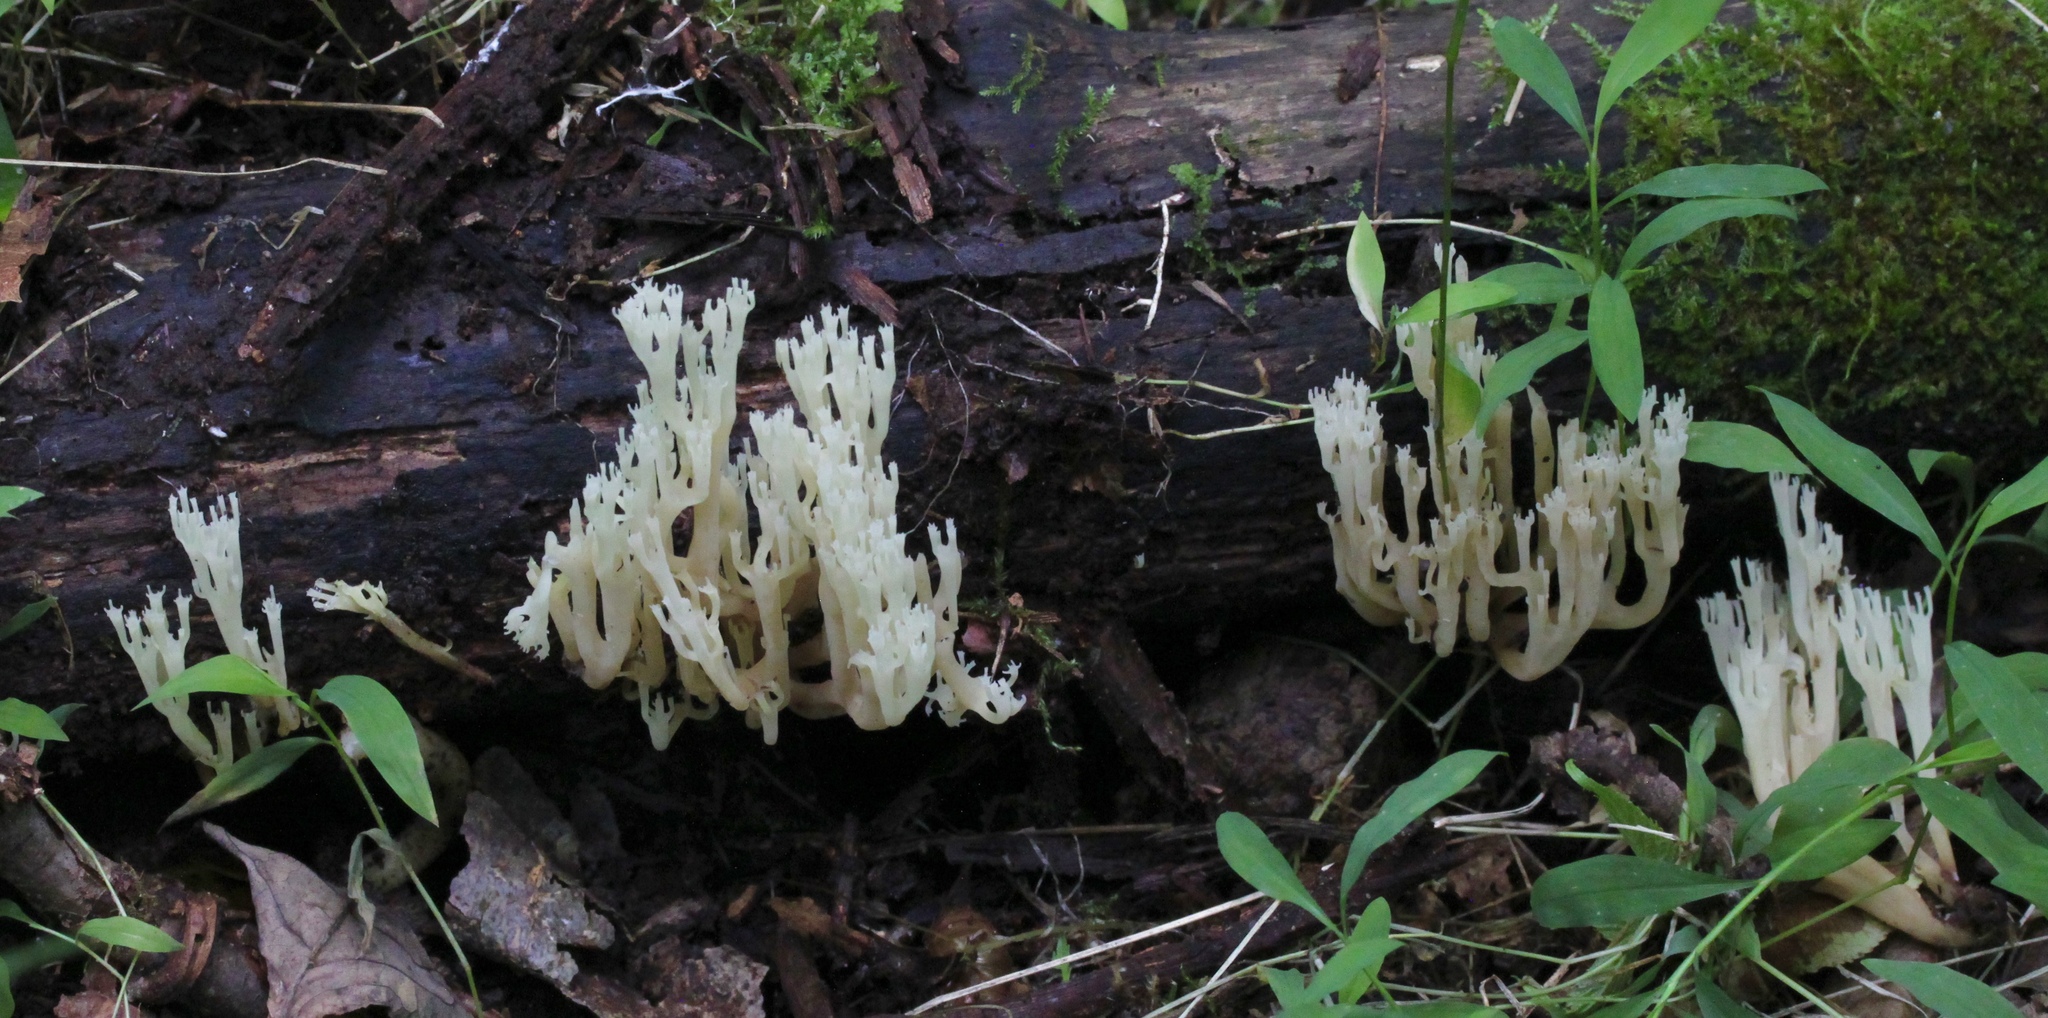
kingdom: Fungi
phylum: Basidiomycota
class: Agaricomycetes
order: Russulales
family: Auriscalpiaceae
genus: Artomyces
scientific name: Artomyces pyxidatus
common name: Crown-tipped coral fungus
